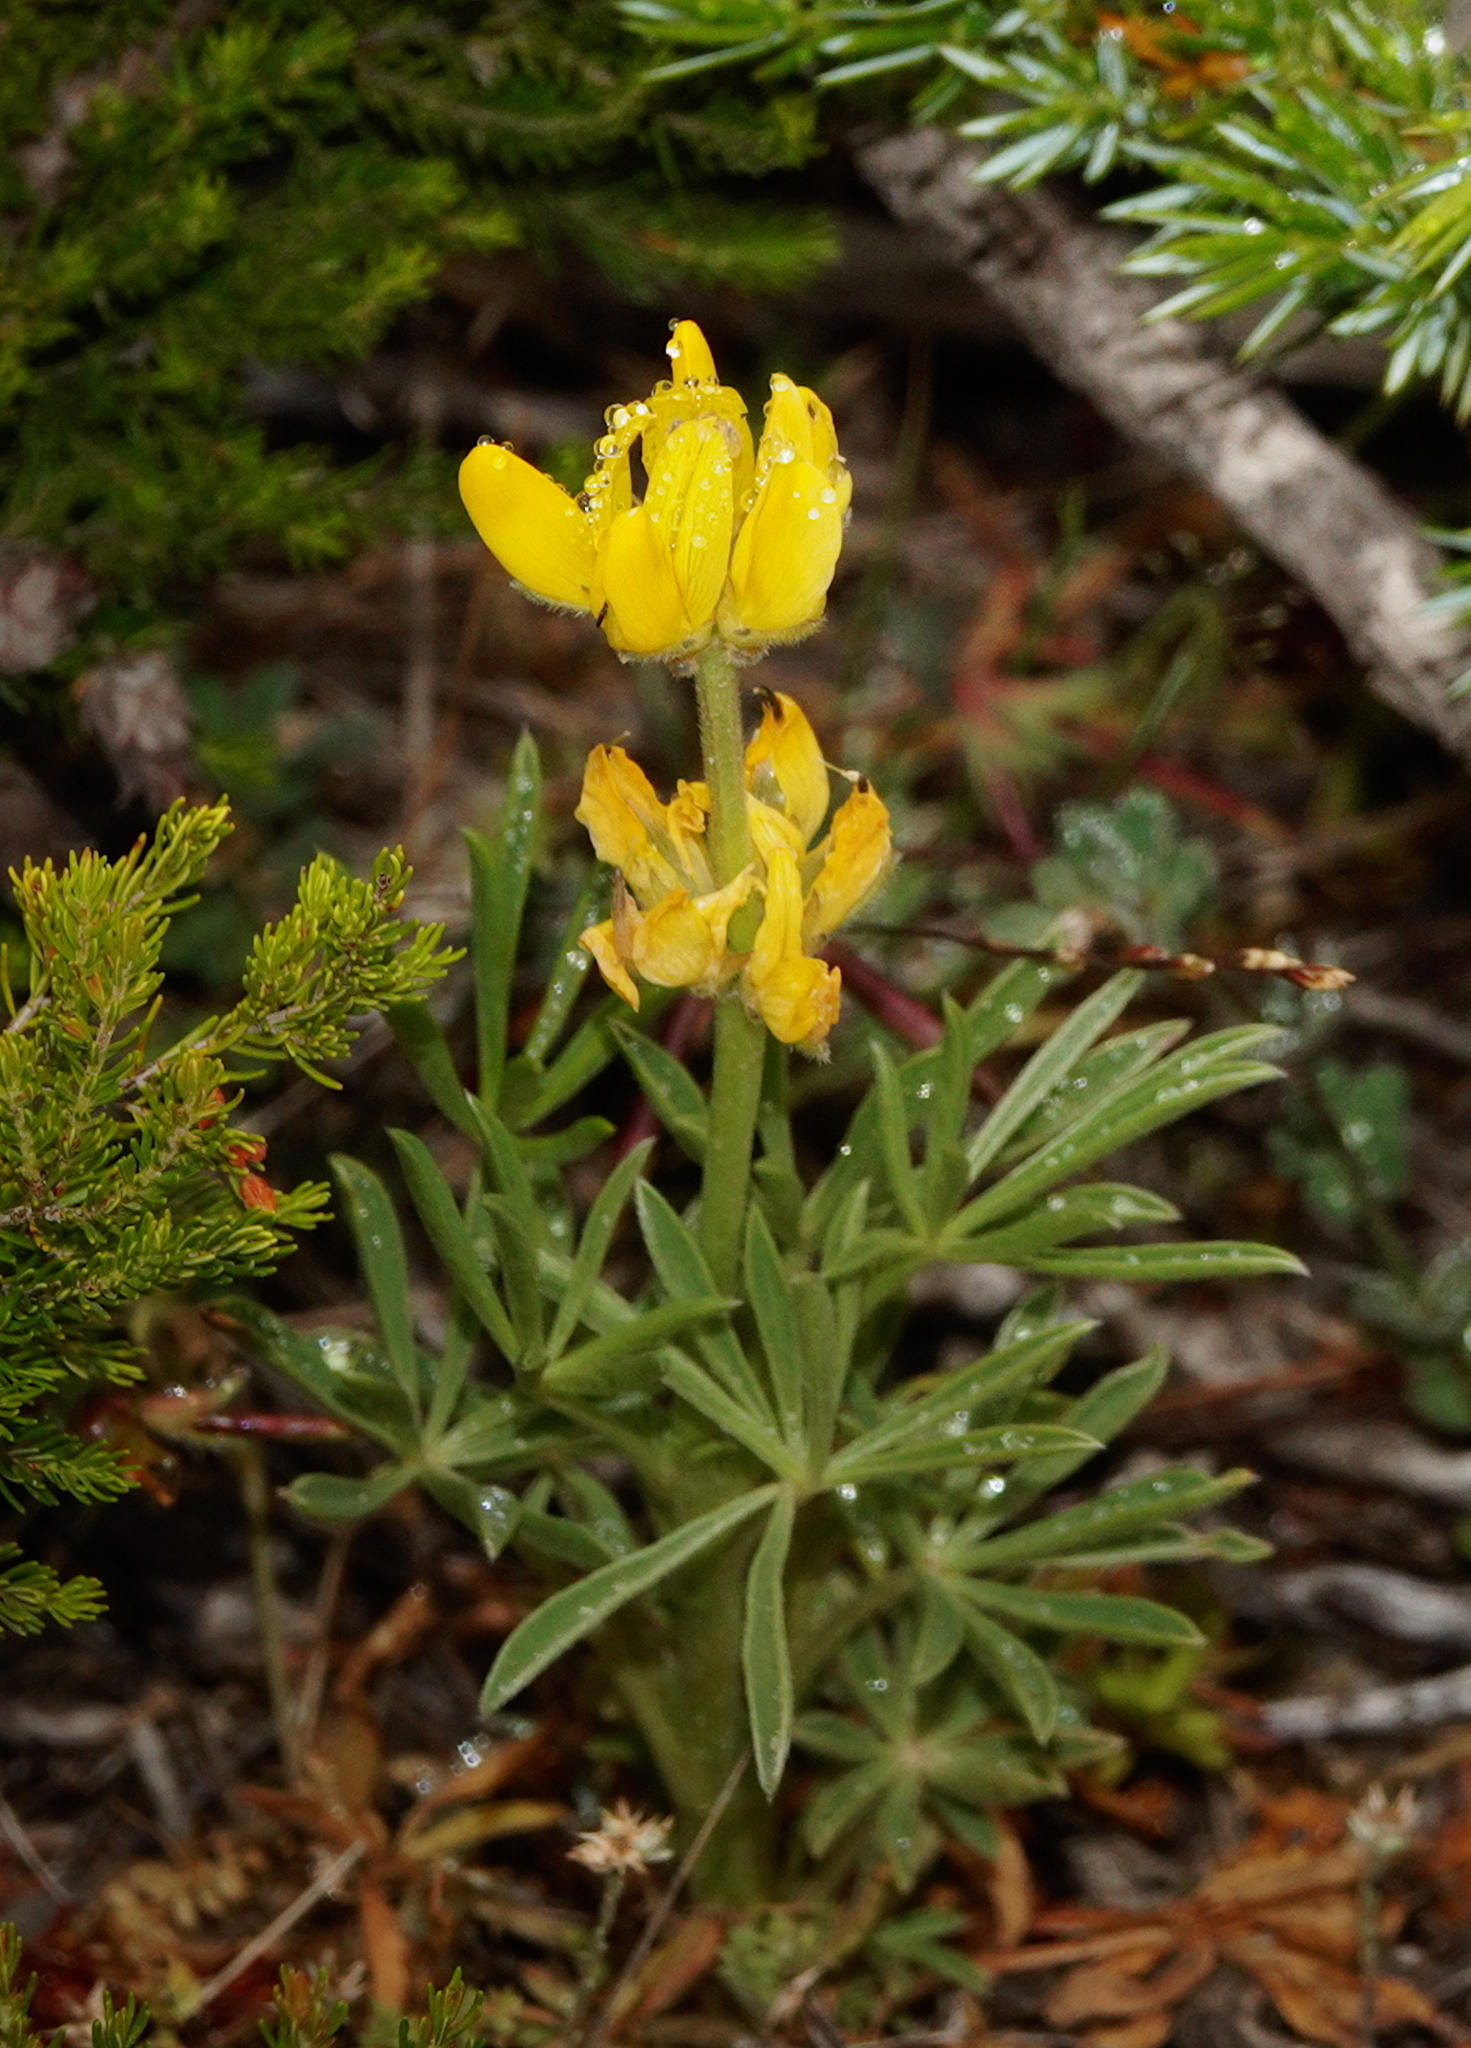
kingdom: Plantae
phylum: Tracheophyta
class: Magnoliopsida
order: Fabales
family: Fabaceae
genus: Lupinus
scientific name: Lupinus luteus
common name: European yellow lupine
